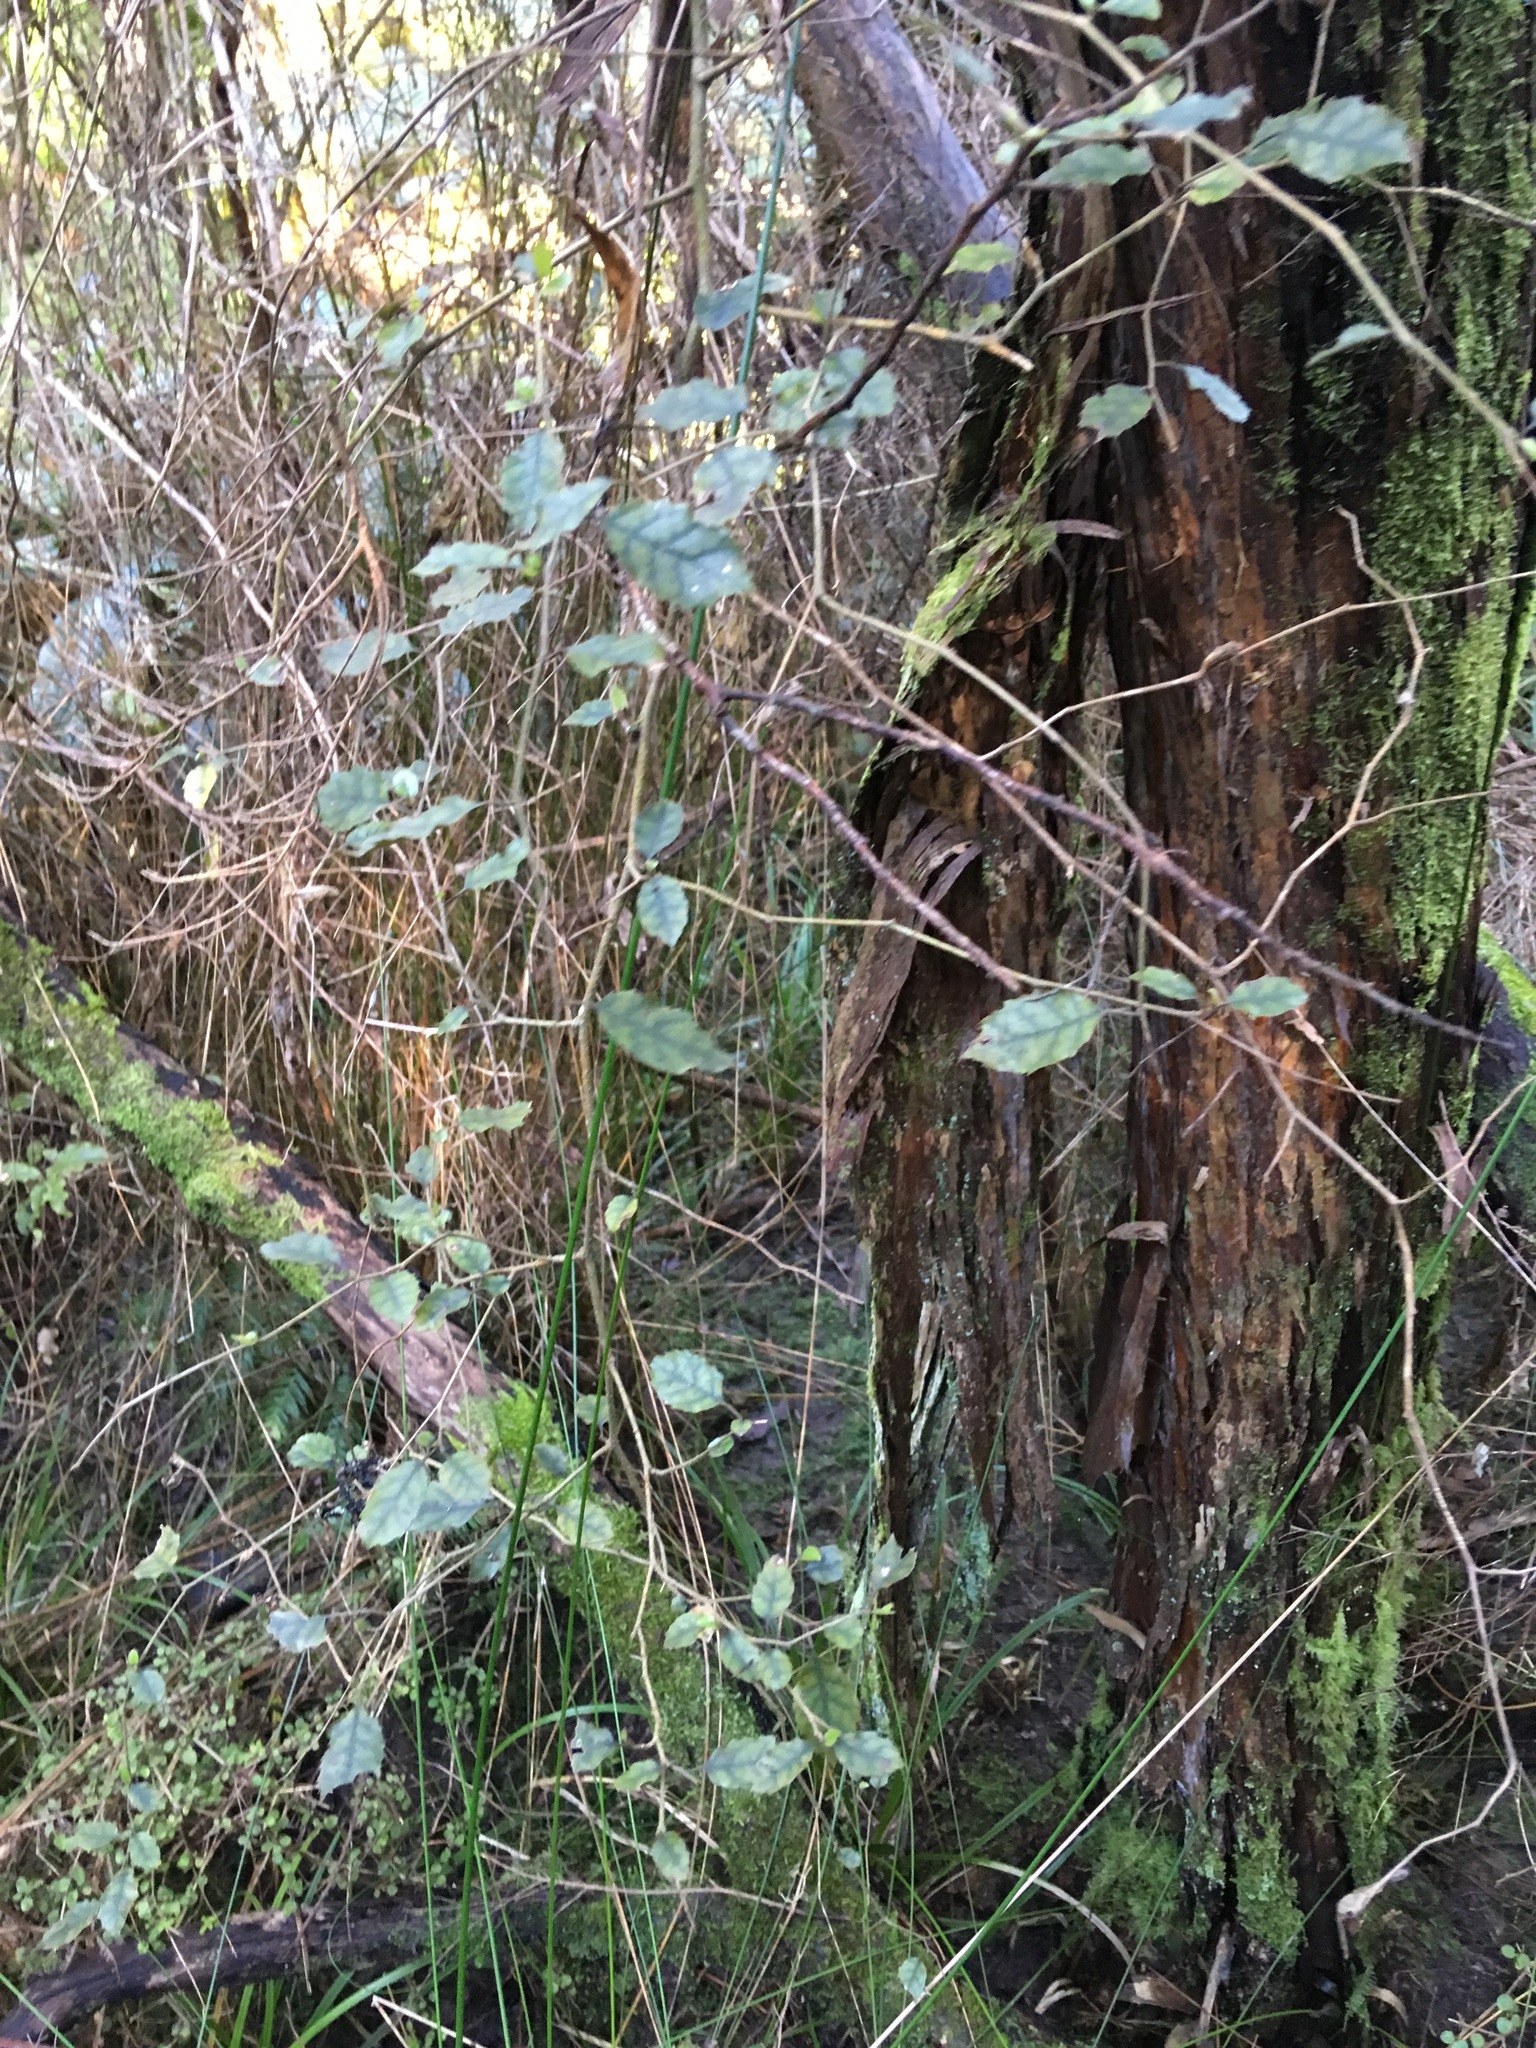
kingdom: Plantae
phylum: Tracheophyta
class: Magnoliopsida
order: Asterales
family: Rousseaceae
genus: Carpodetus
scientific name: Carpodetus serratus
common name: White mapau
